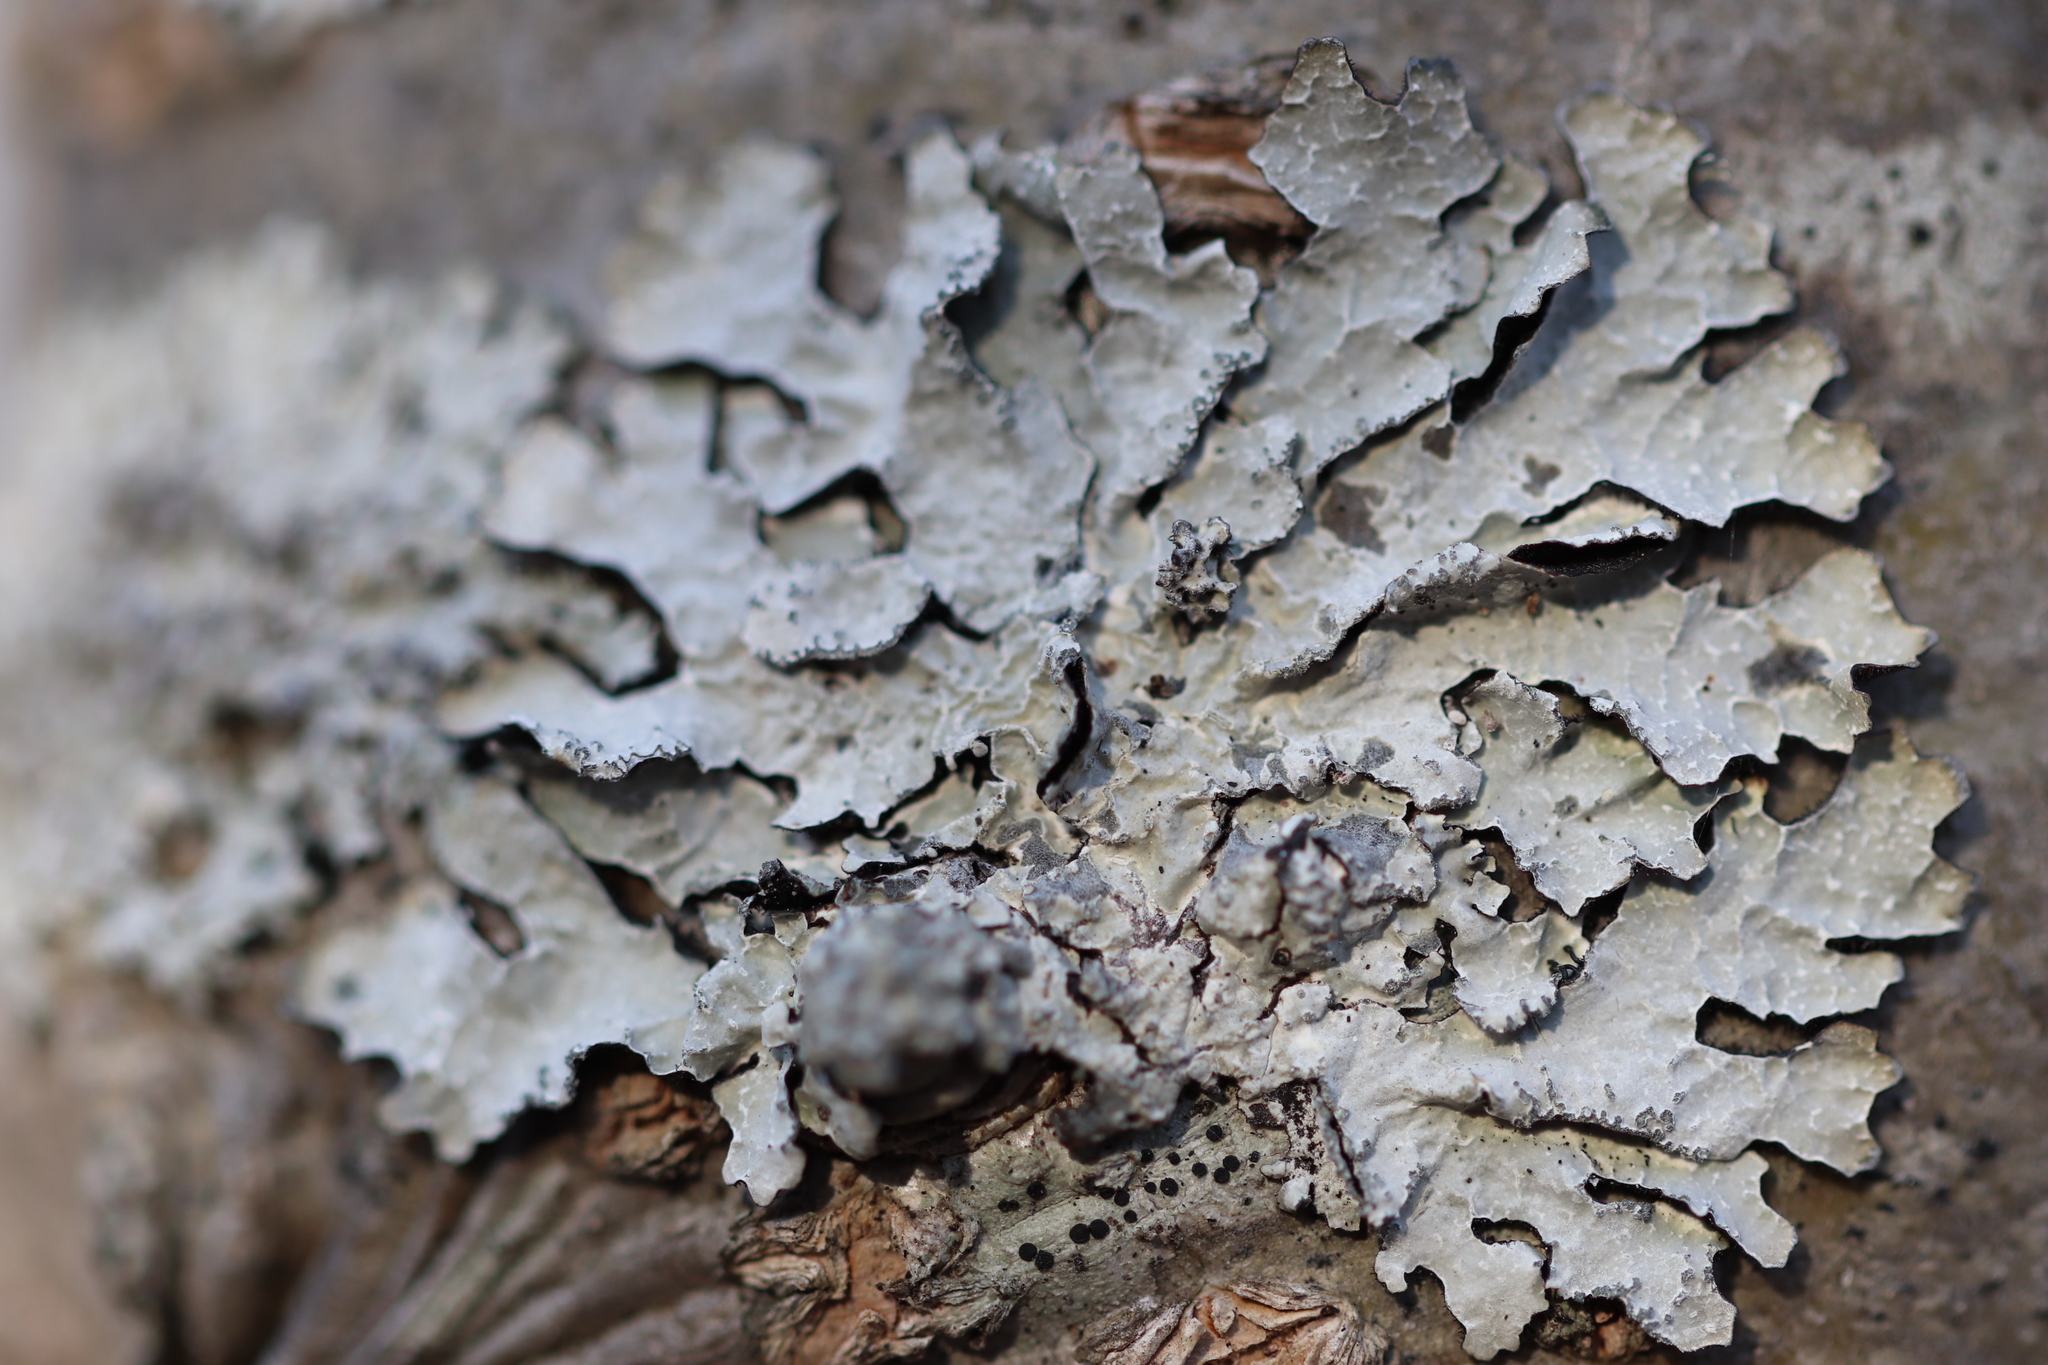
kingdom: Fungi
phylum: Ascomycota
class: Lecanoromycetes
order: Lecanorales
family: Parmeliaceae
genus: Parmelia
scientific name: Parmelia sulcata
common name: Netted shield lichen
